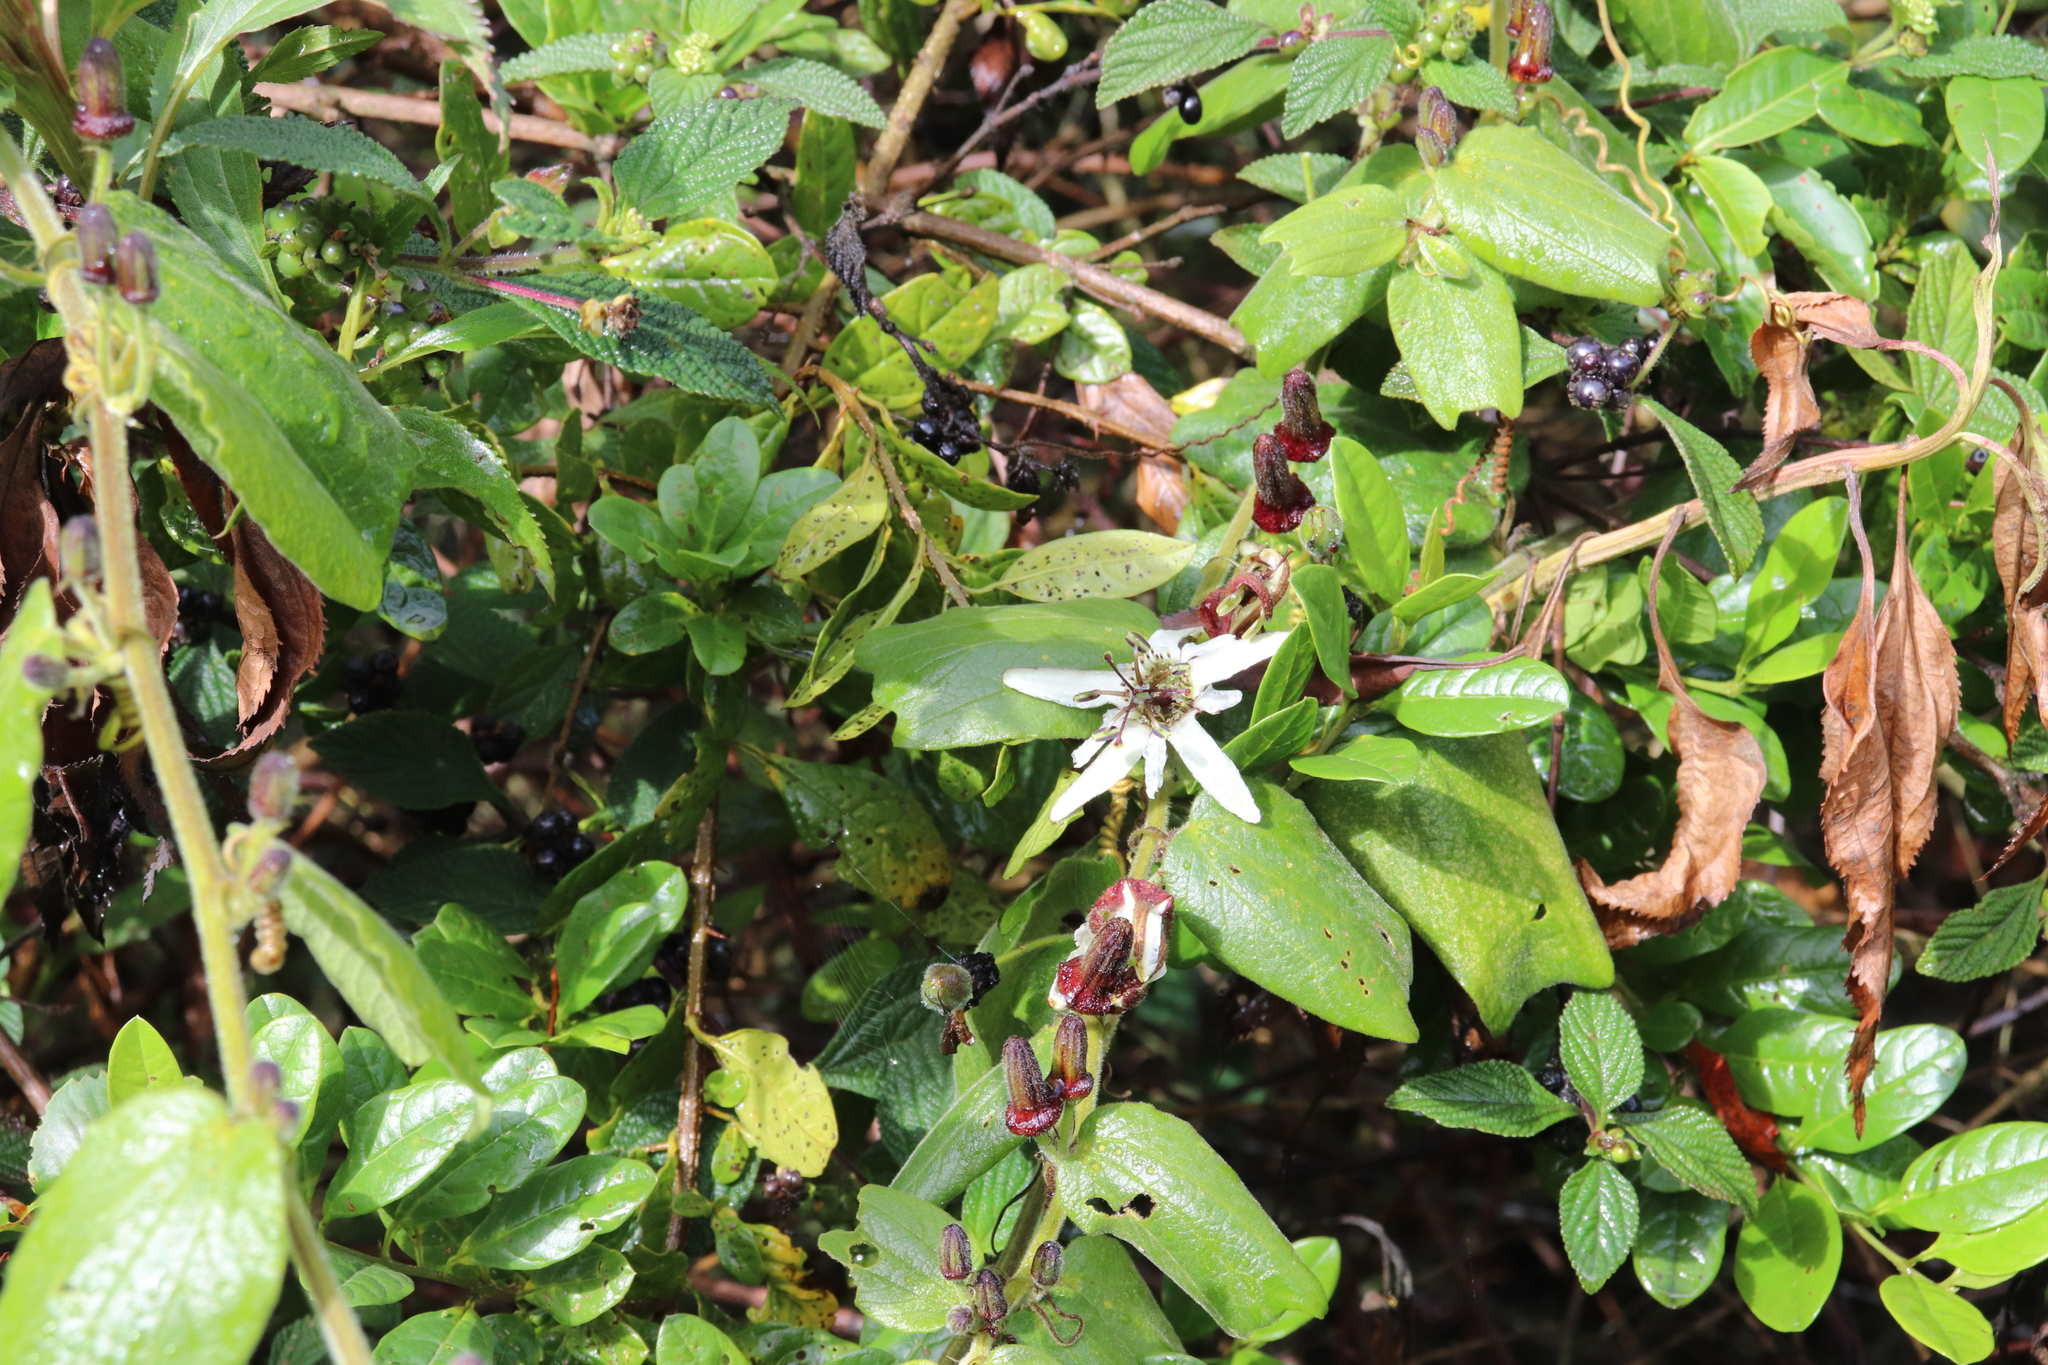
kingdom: Plantae
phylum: Tracheophyta
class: Magnoliopsida
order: Malpighiales
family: Passifloraceae
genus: Passiflora
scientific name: Passiflora bogotensis
